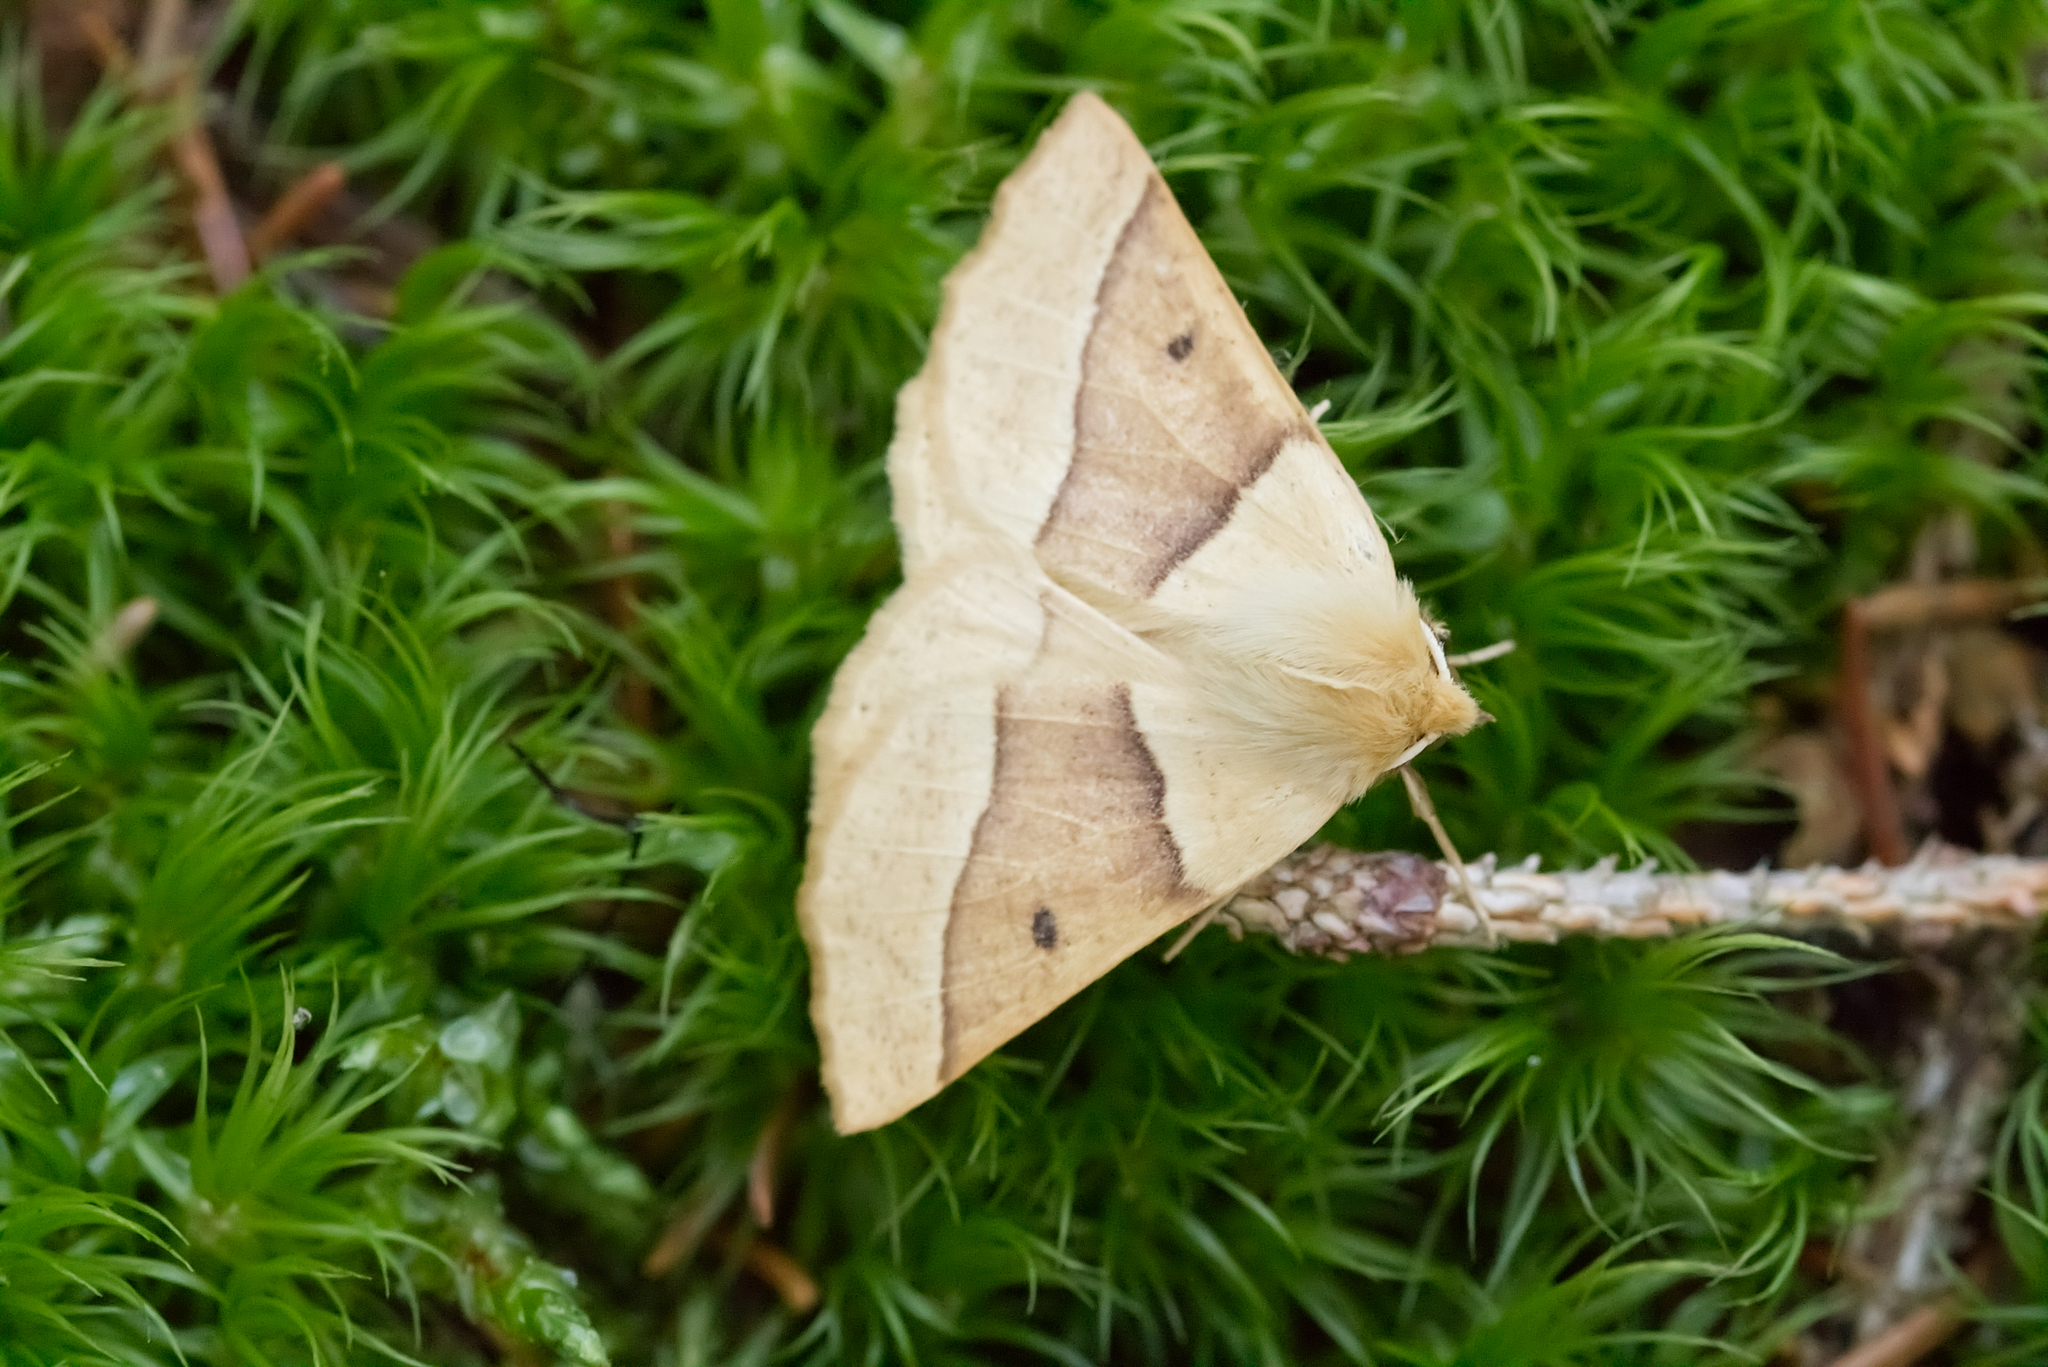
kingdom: Animalia
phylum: Arthropoda
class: Insecta
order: Lepidoptera
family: Geometridae
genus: Crocallis
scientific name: Crocallis elinguaria
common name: Scalloped oak
